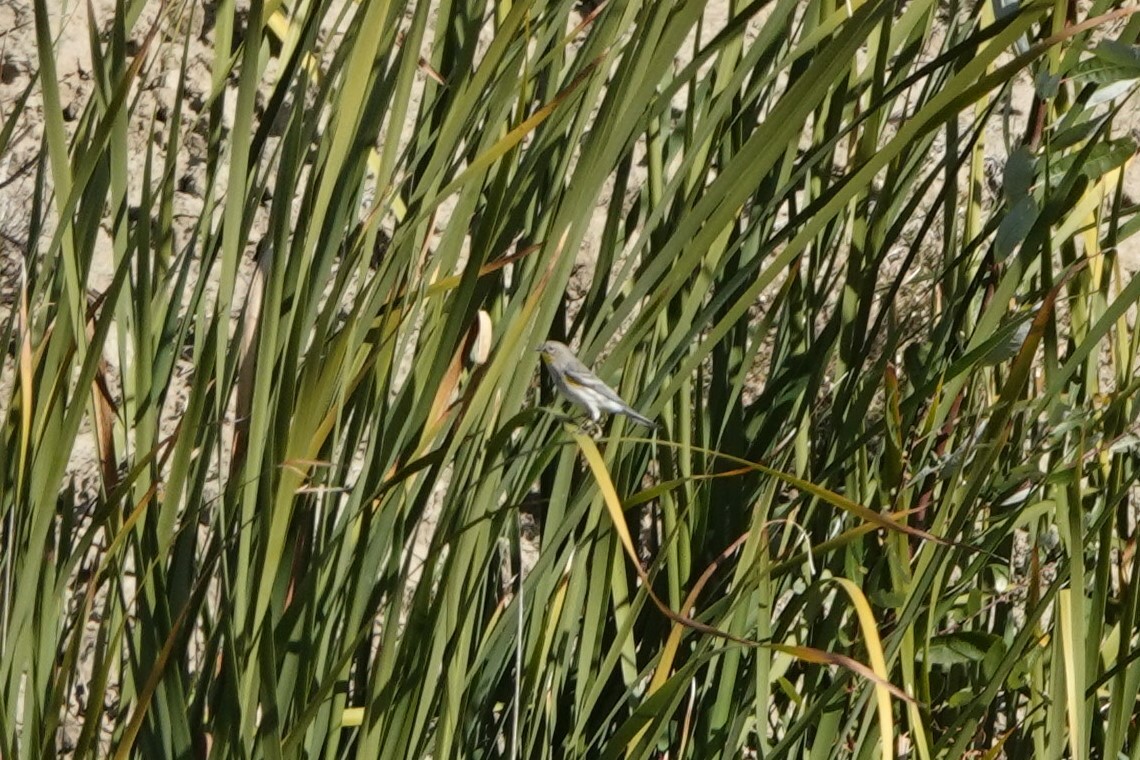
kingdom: Animalia
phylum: Chordata
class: Aves
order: Passeriformes
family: Parulidae
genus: Setophaga
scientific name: Setophaga coronata
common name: Myrtle warbler
